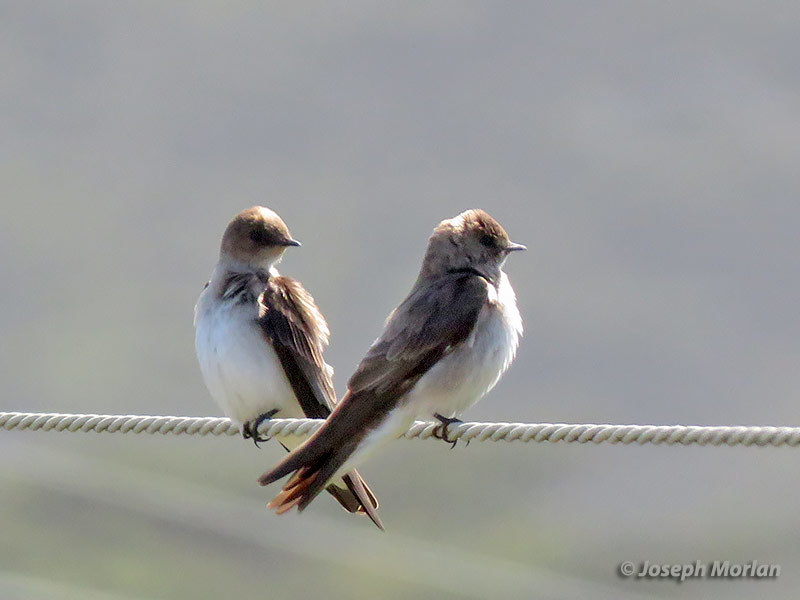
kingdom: Animalia
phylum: Chordata
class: Aves
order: Passeriformes
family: Hirundinidae
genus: Stelgidopteryx
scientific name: Stelgidopteryx serripennis
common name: Northern rough-winged swallow
